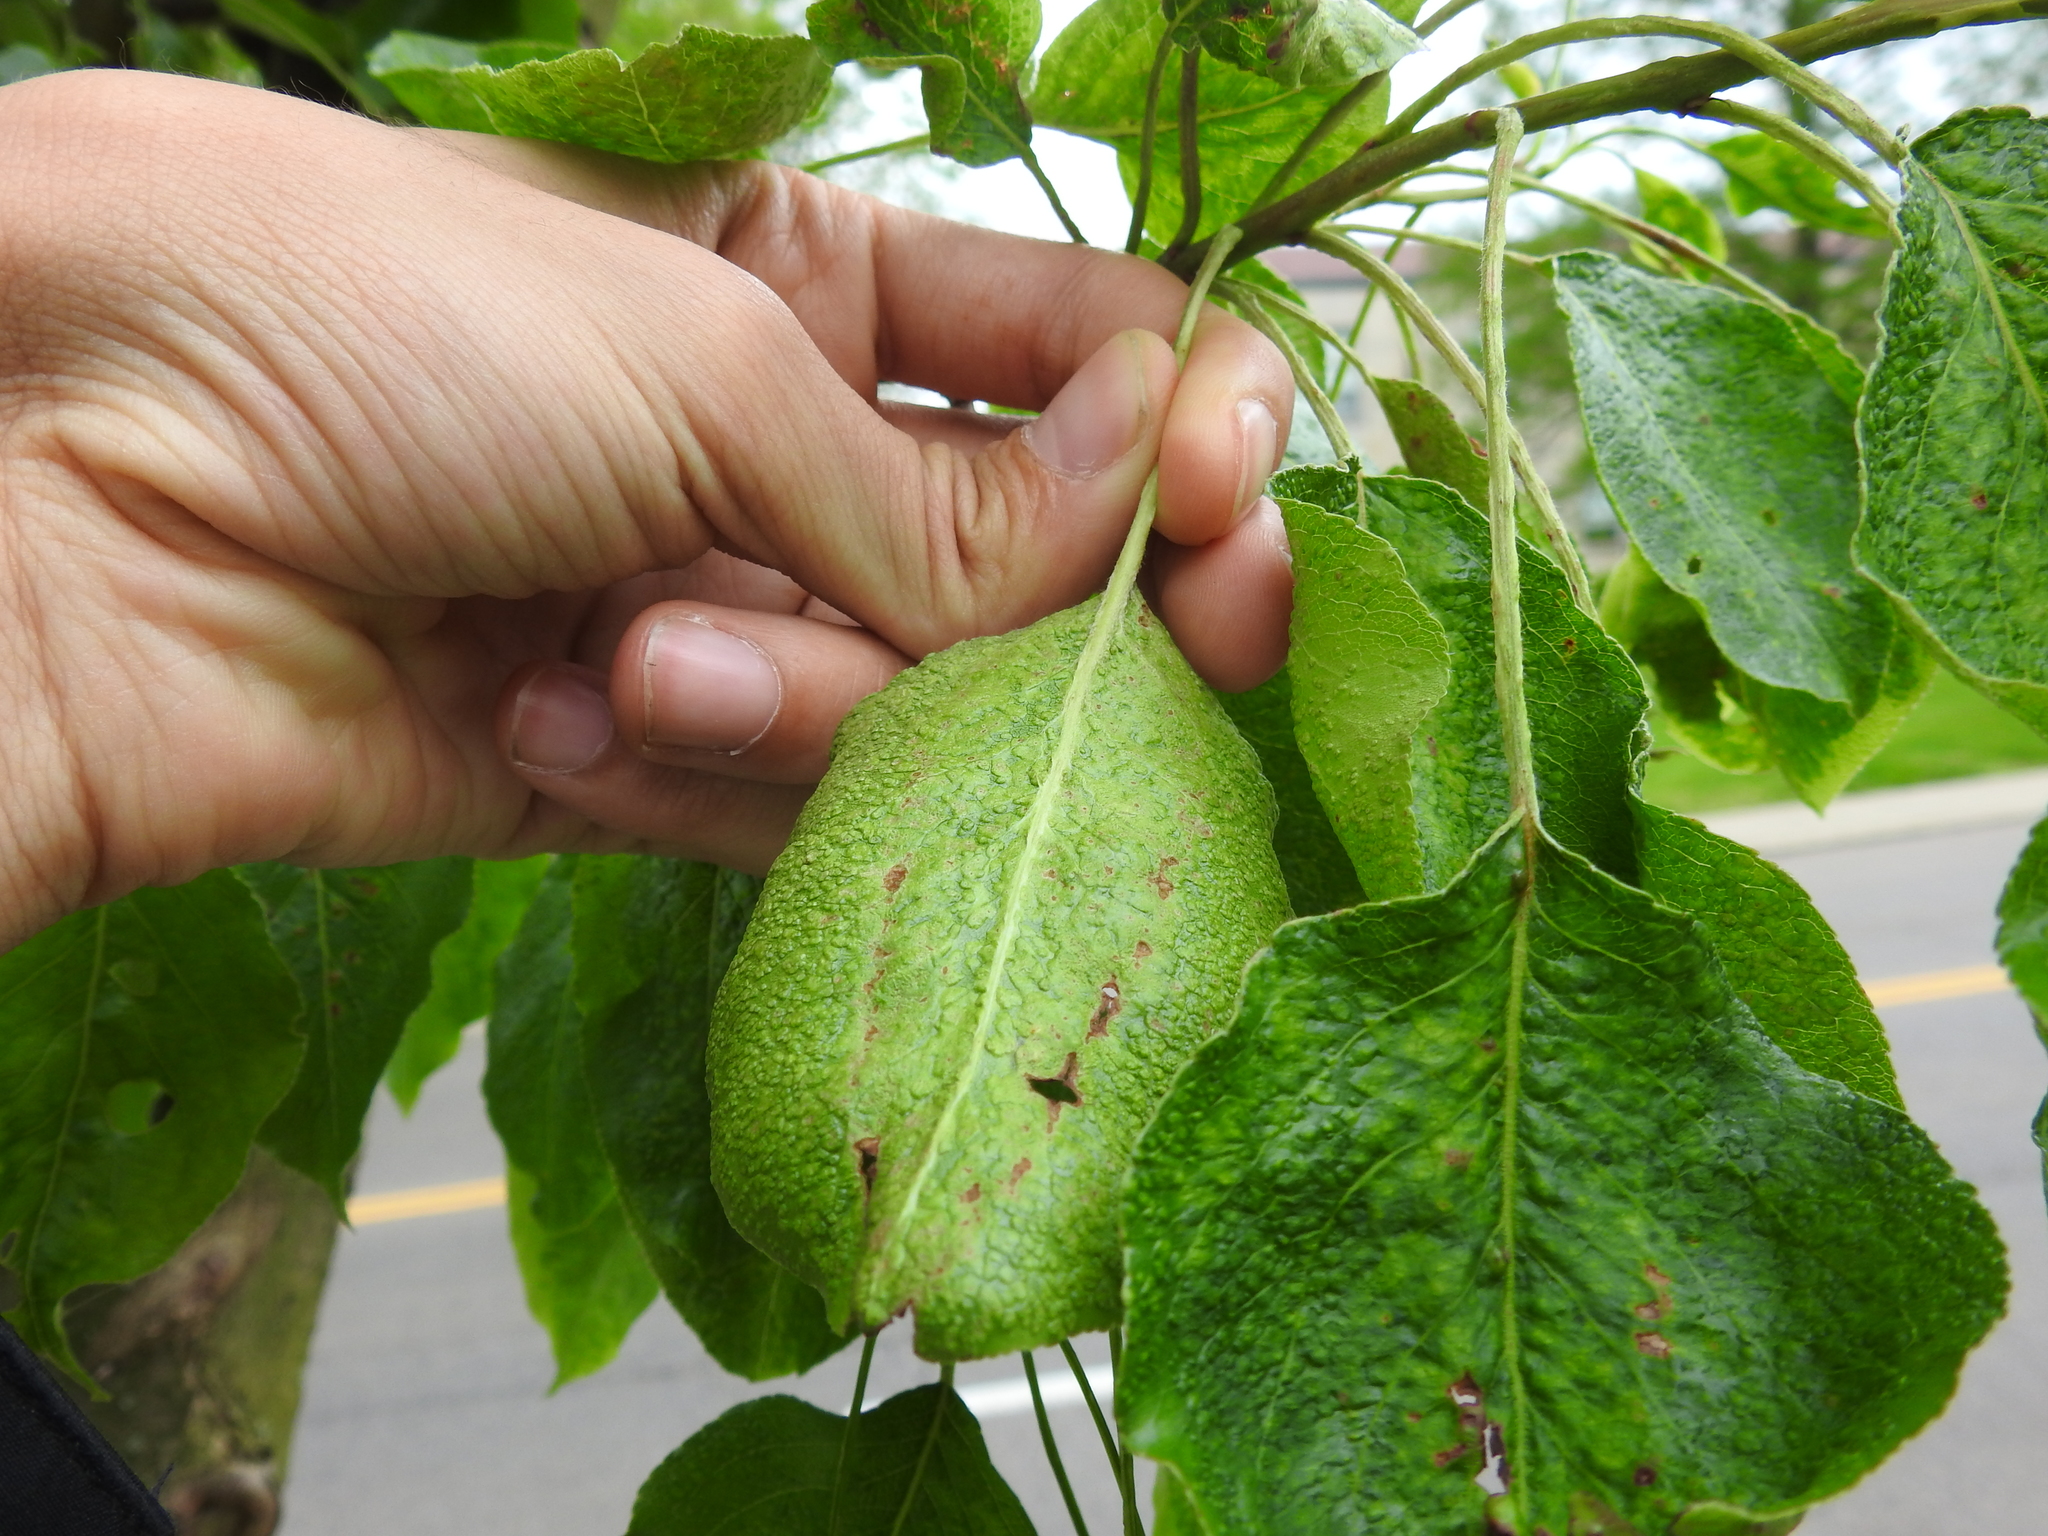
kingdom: Animalia
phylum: Arthropoda
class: Arachnida
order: Trombidiformes
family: Eriophyidae
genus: Eriophyes
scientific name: Eriophyes pyri
